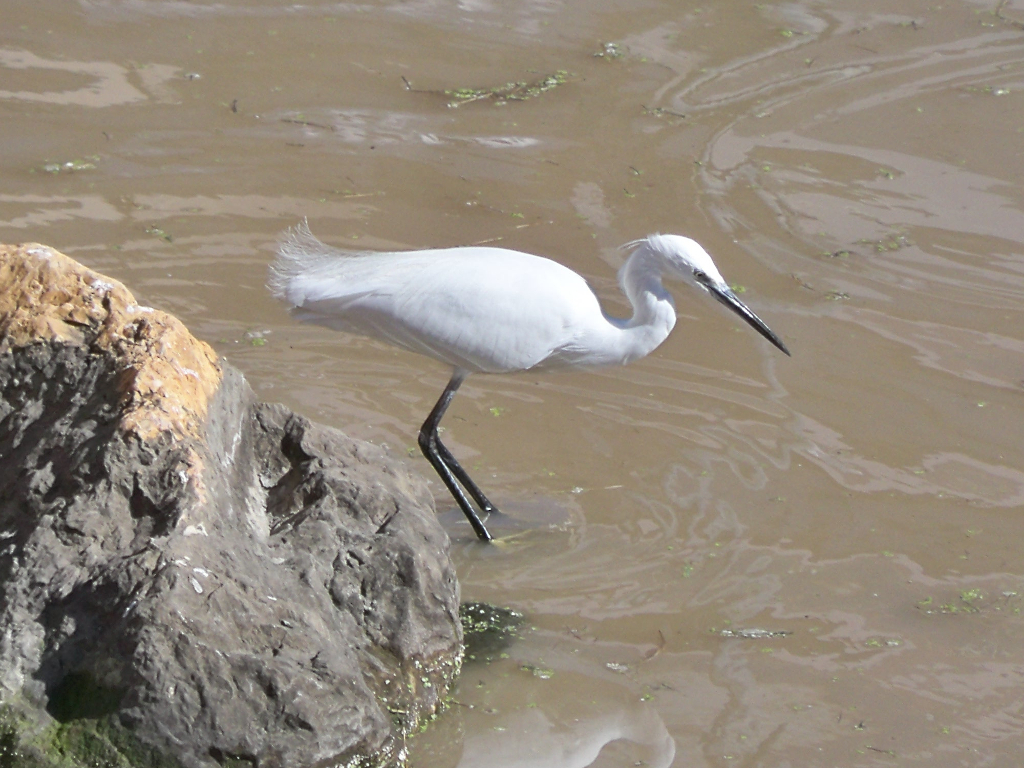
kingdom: Animalia
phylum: Chordata
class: Aves
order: Pelecaniformes
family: Ardeidae
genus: Egretta
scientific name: Egretta garzetta
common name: Little egret
